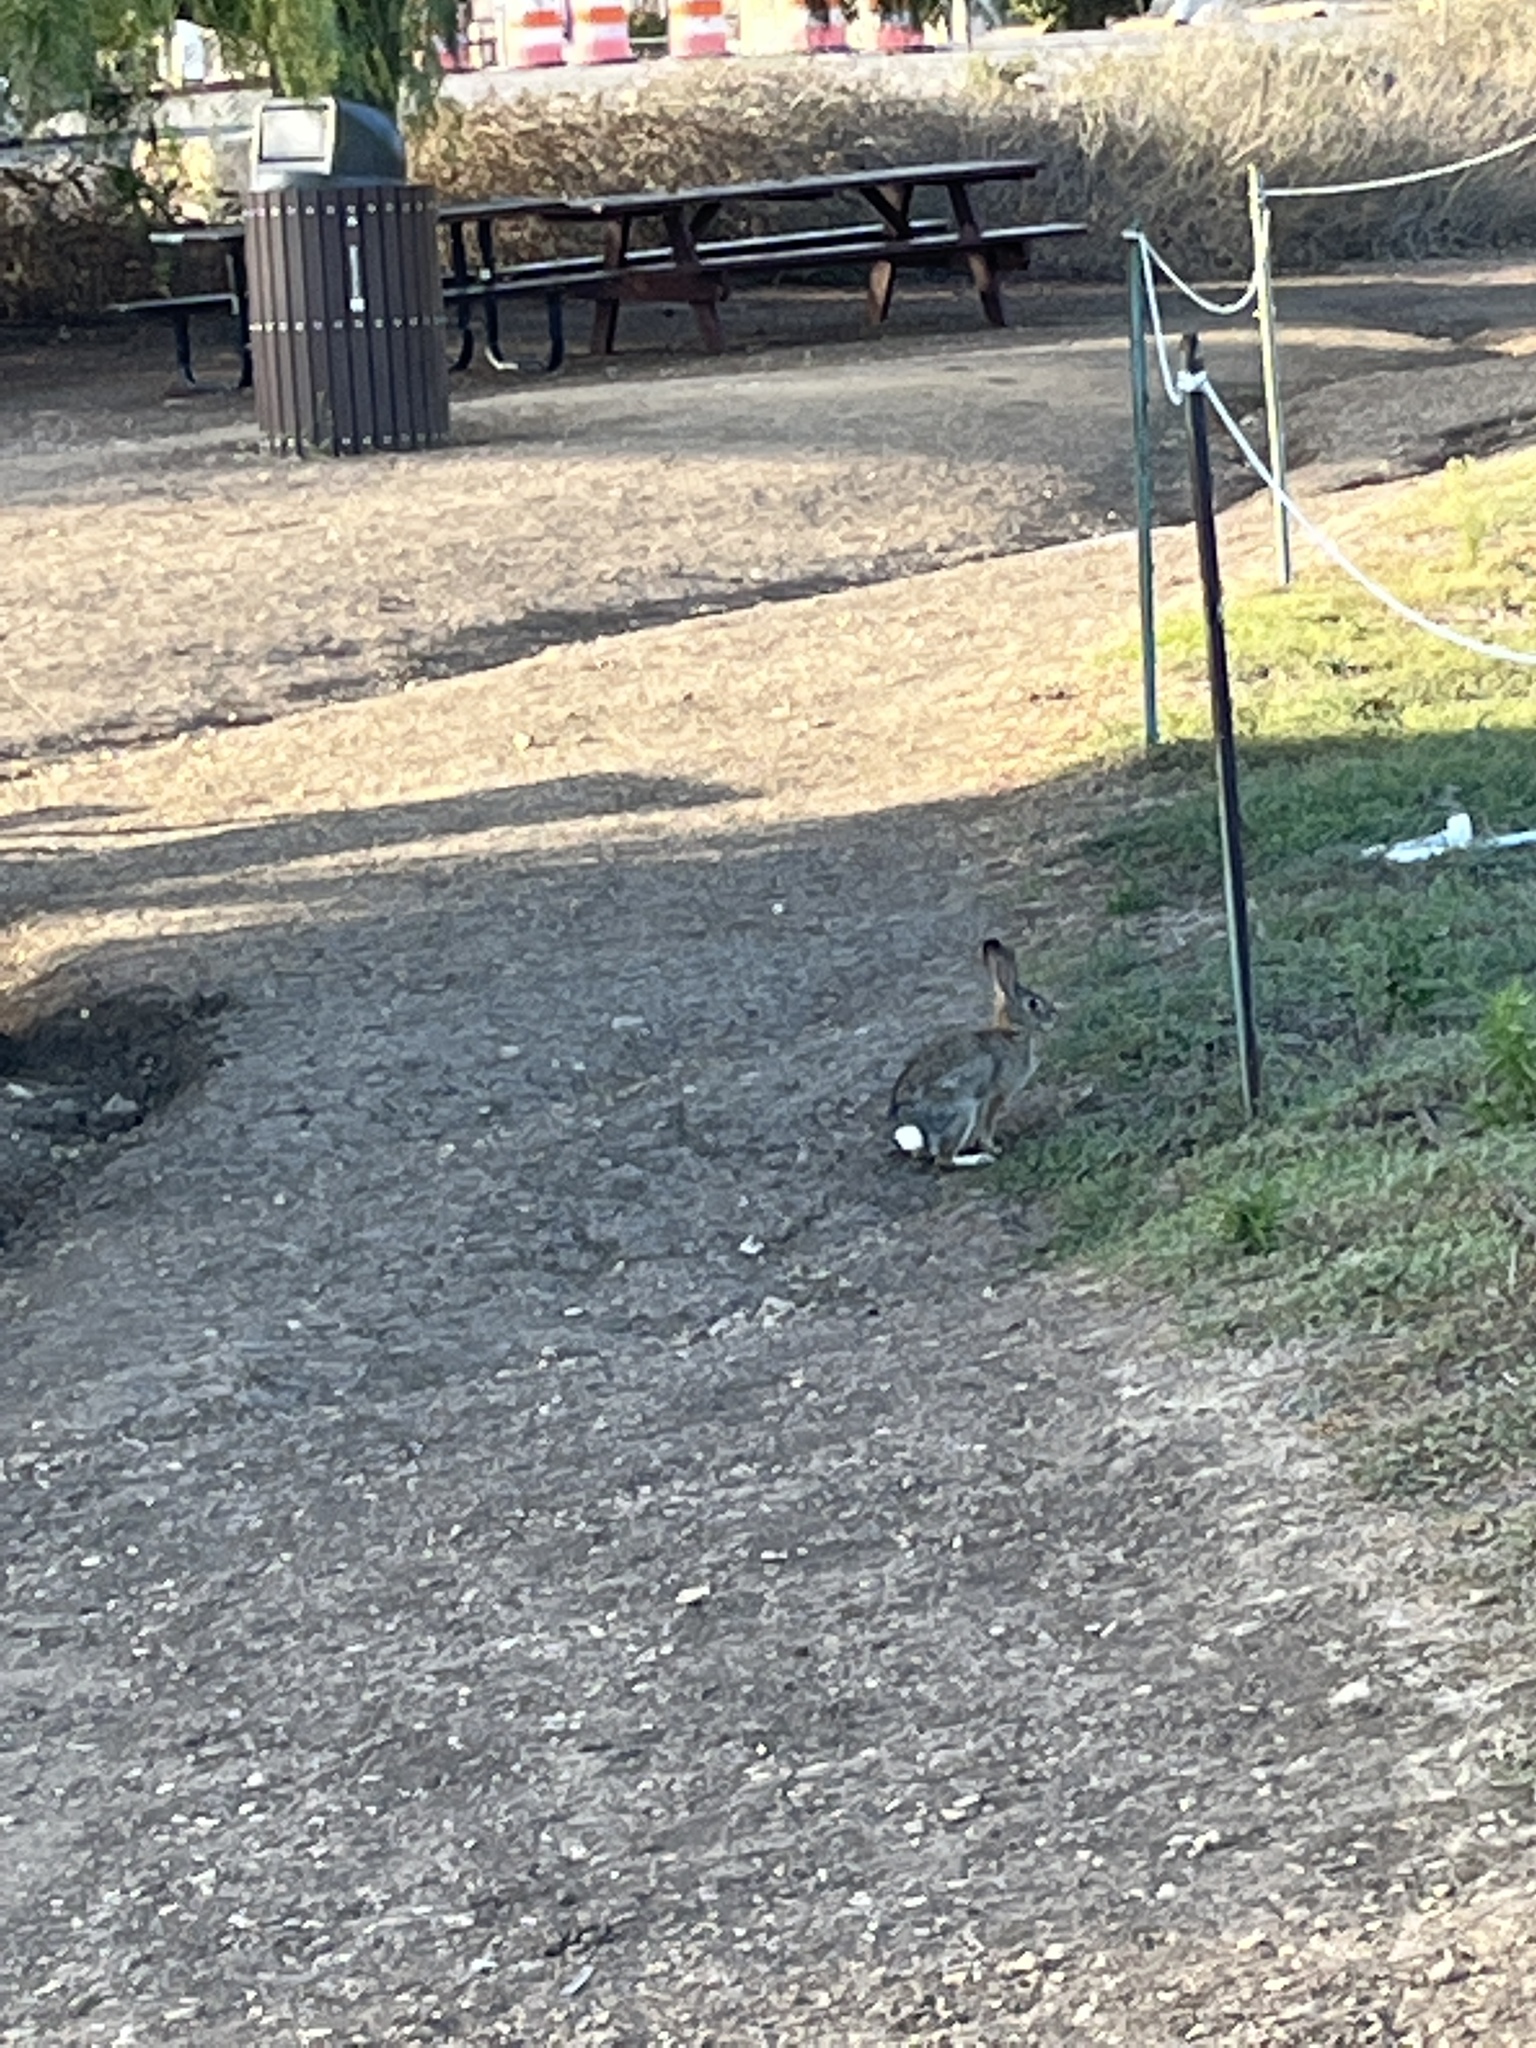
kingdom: Animalia
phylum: Chordata
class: Mammalia
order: Lagomorpha
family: Leporidae
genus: Sylvilagus
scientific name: Sylvilagus audubonii
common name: Desert cottontail
